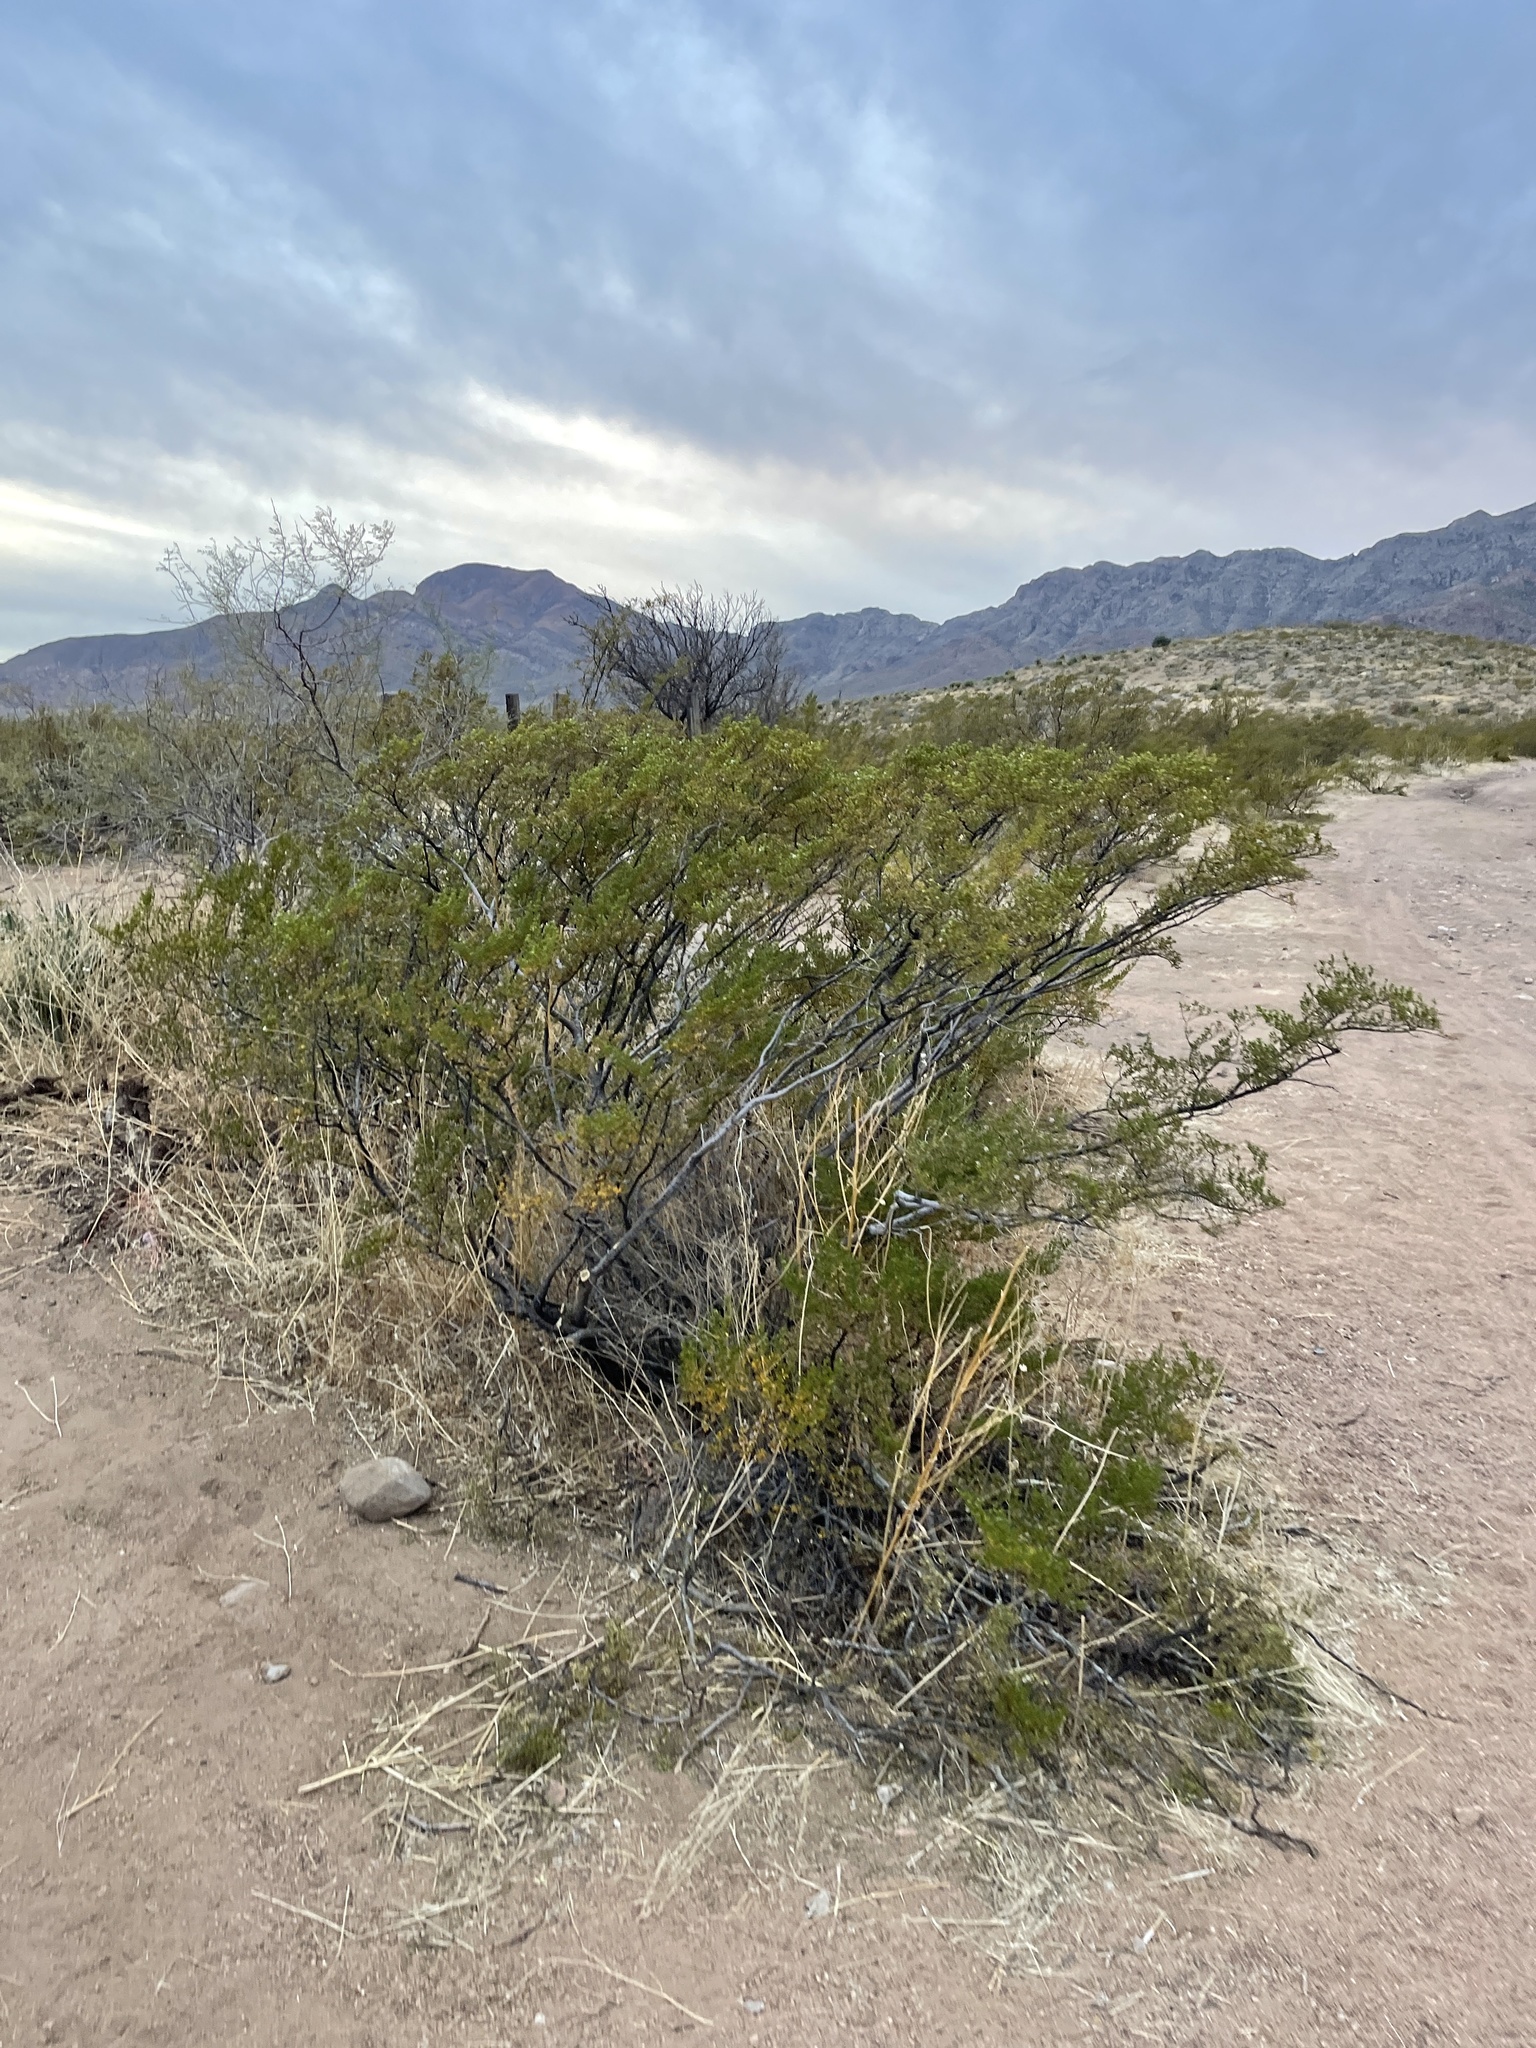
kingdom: Plantae
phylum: Tracheophyta
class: Magnoliopsida
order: Zygophyllales
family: Zygophyllaceae
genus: Larrea
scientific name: Larrea tridentata
